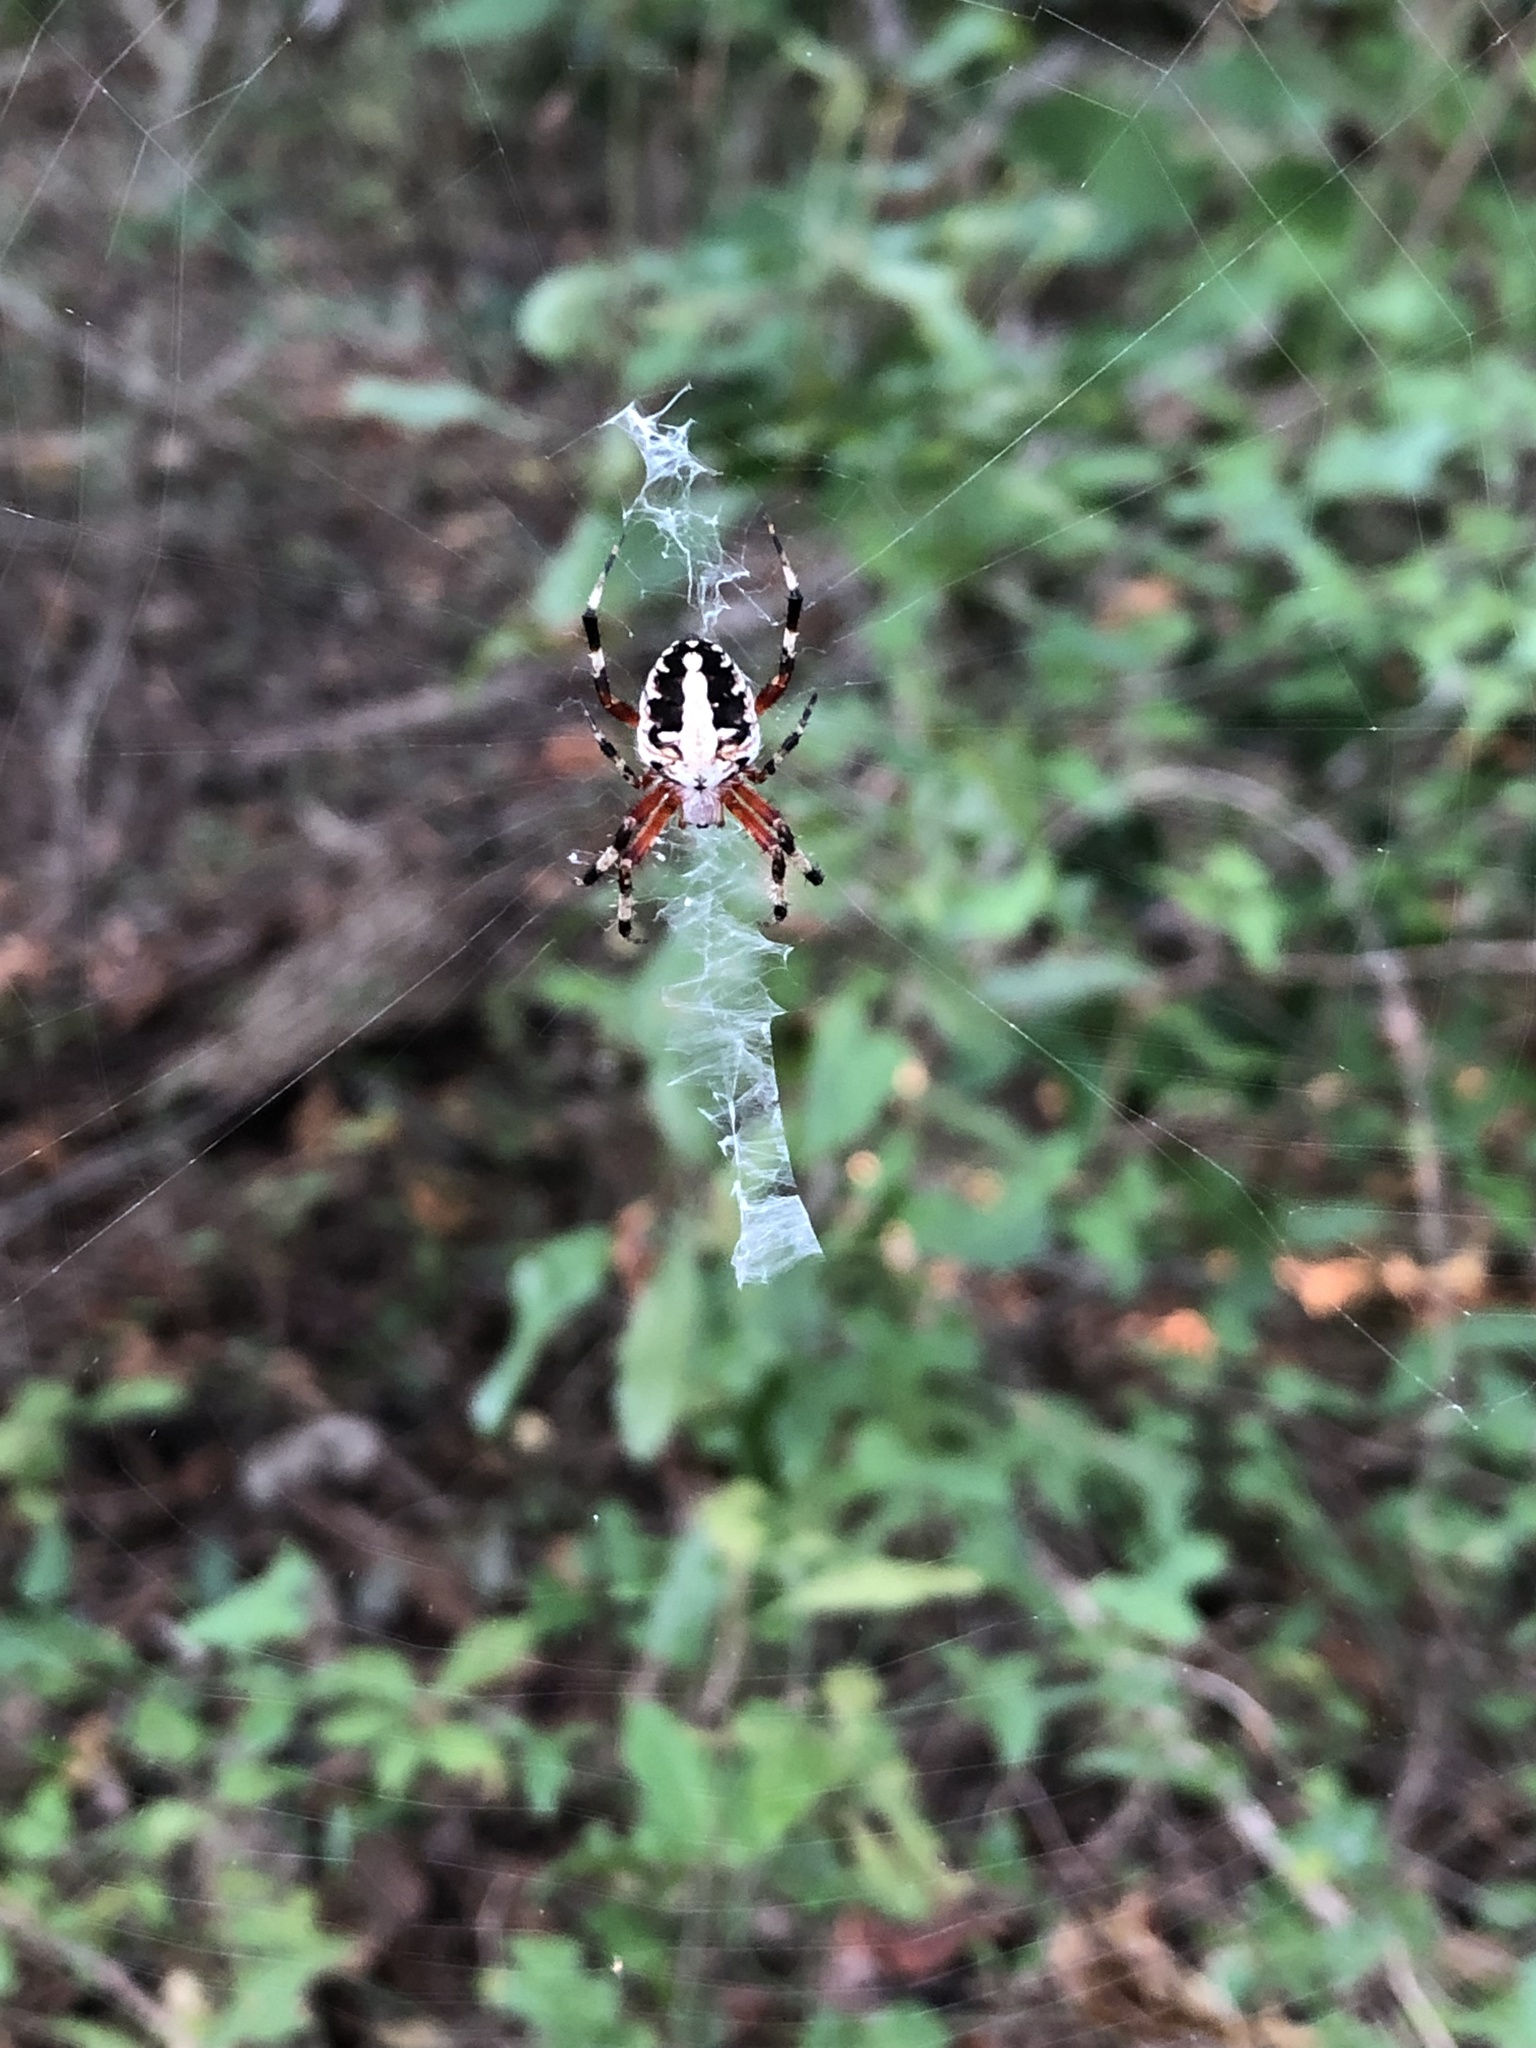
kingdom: Animalia
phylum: Arthropoda
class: Arachnida
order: Araneae
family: Araneidae
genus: Neoscona
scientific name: Neoscona domiciliorum
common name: Red-femured spotted orbweaver
